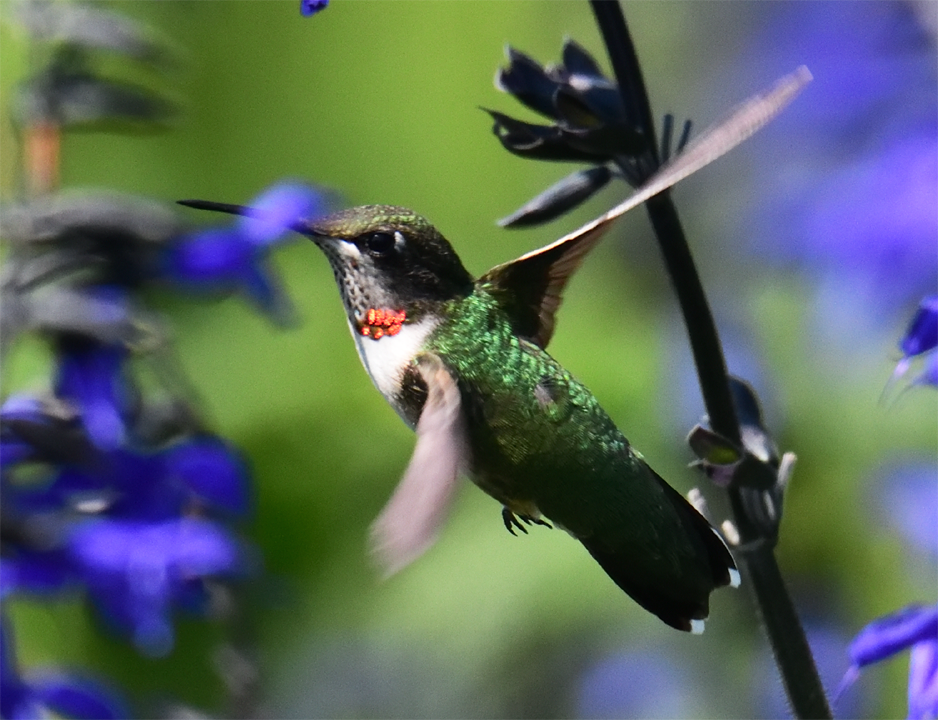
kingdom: Animalia
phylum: Chordata
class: Aves
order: Apodiformes
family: Trochilidae
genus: Archilochus
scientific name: Archilochus colubris
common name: Ruby-throated hummingbird
